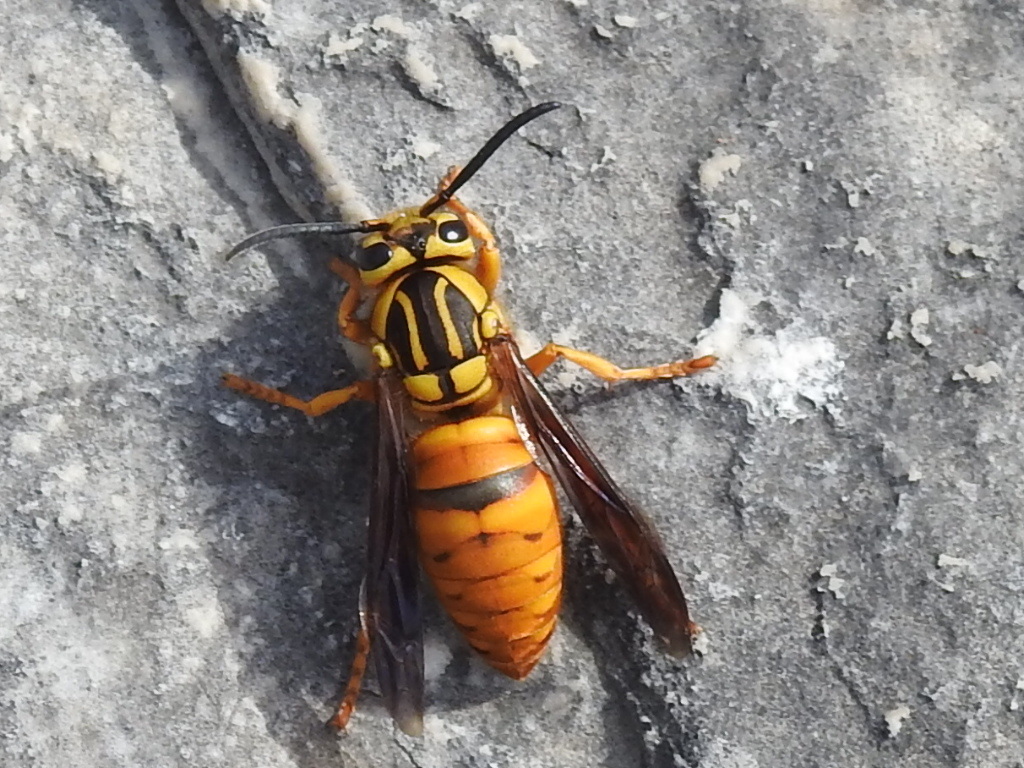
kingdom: Animalia
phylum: Arthropoda
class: Insecta
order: Hymenoptera
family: Vespidae
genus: Vespula
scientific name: Vespula squamosa
